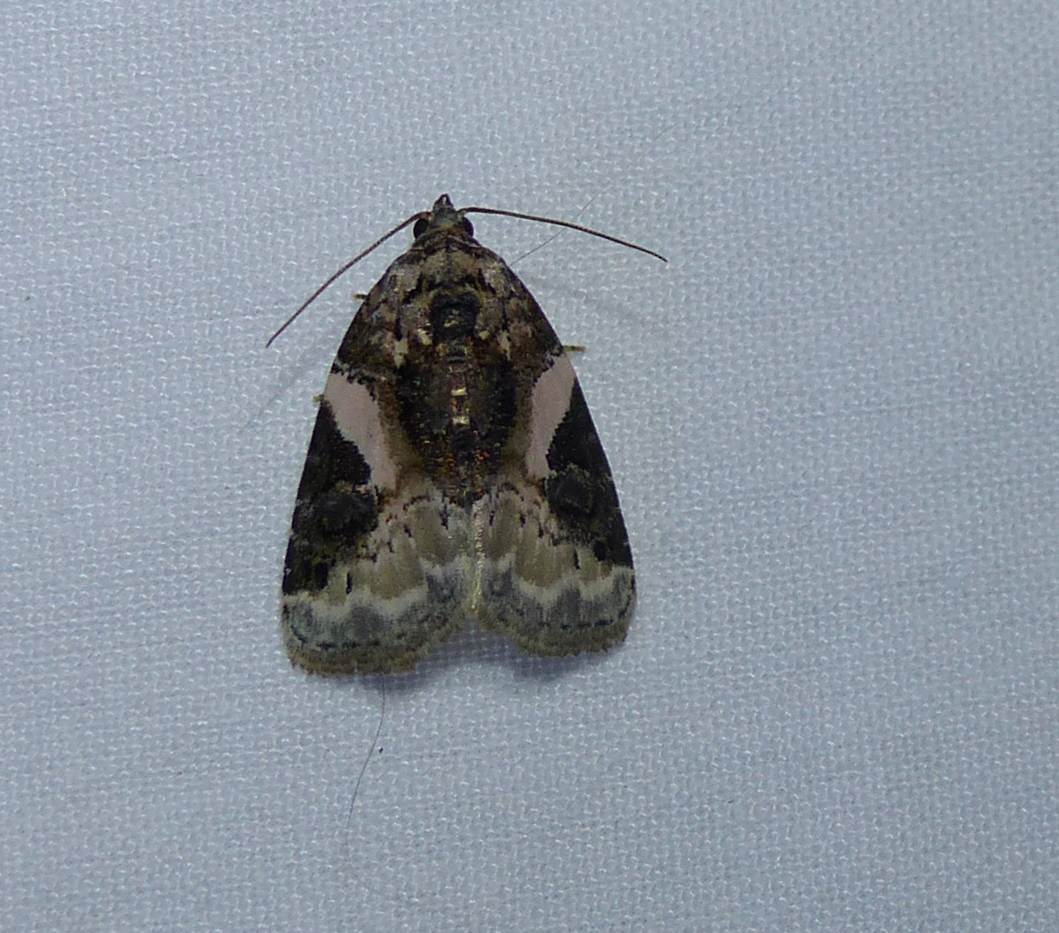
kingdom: Animalia
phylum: Arthropoda
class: Insecta
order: Lepidoptera
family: Noctuidae
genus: Pseudeustrotia
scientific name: Pseudeustrotia carneola
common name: Pink-barred lithacodia moth
